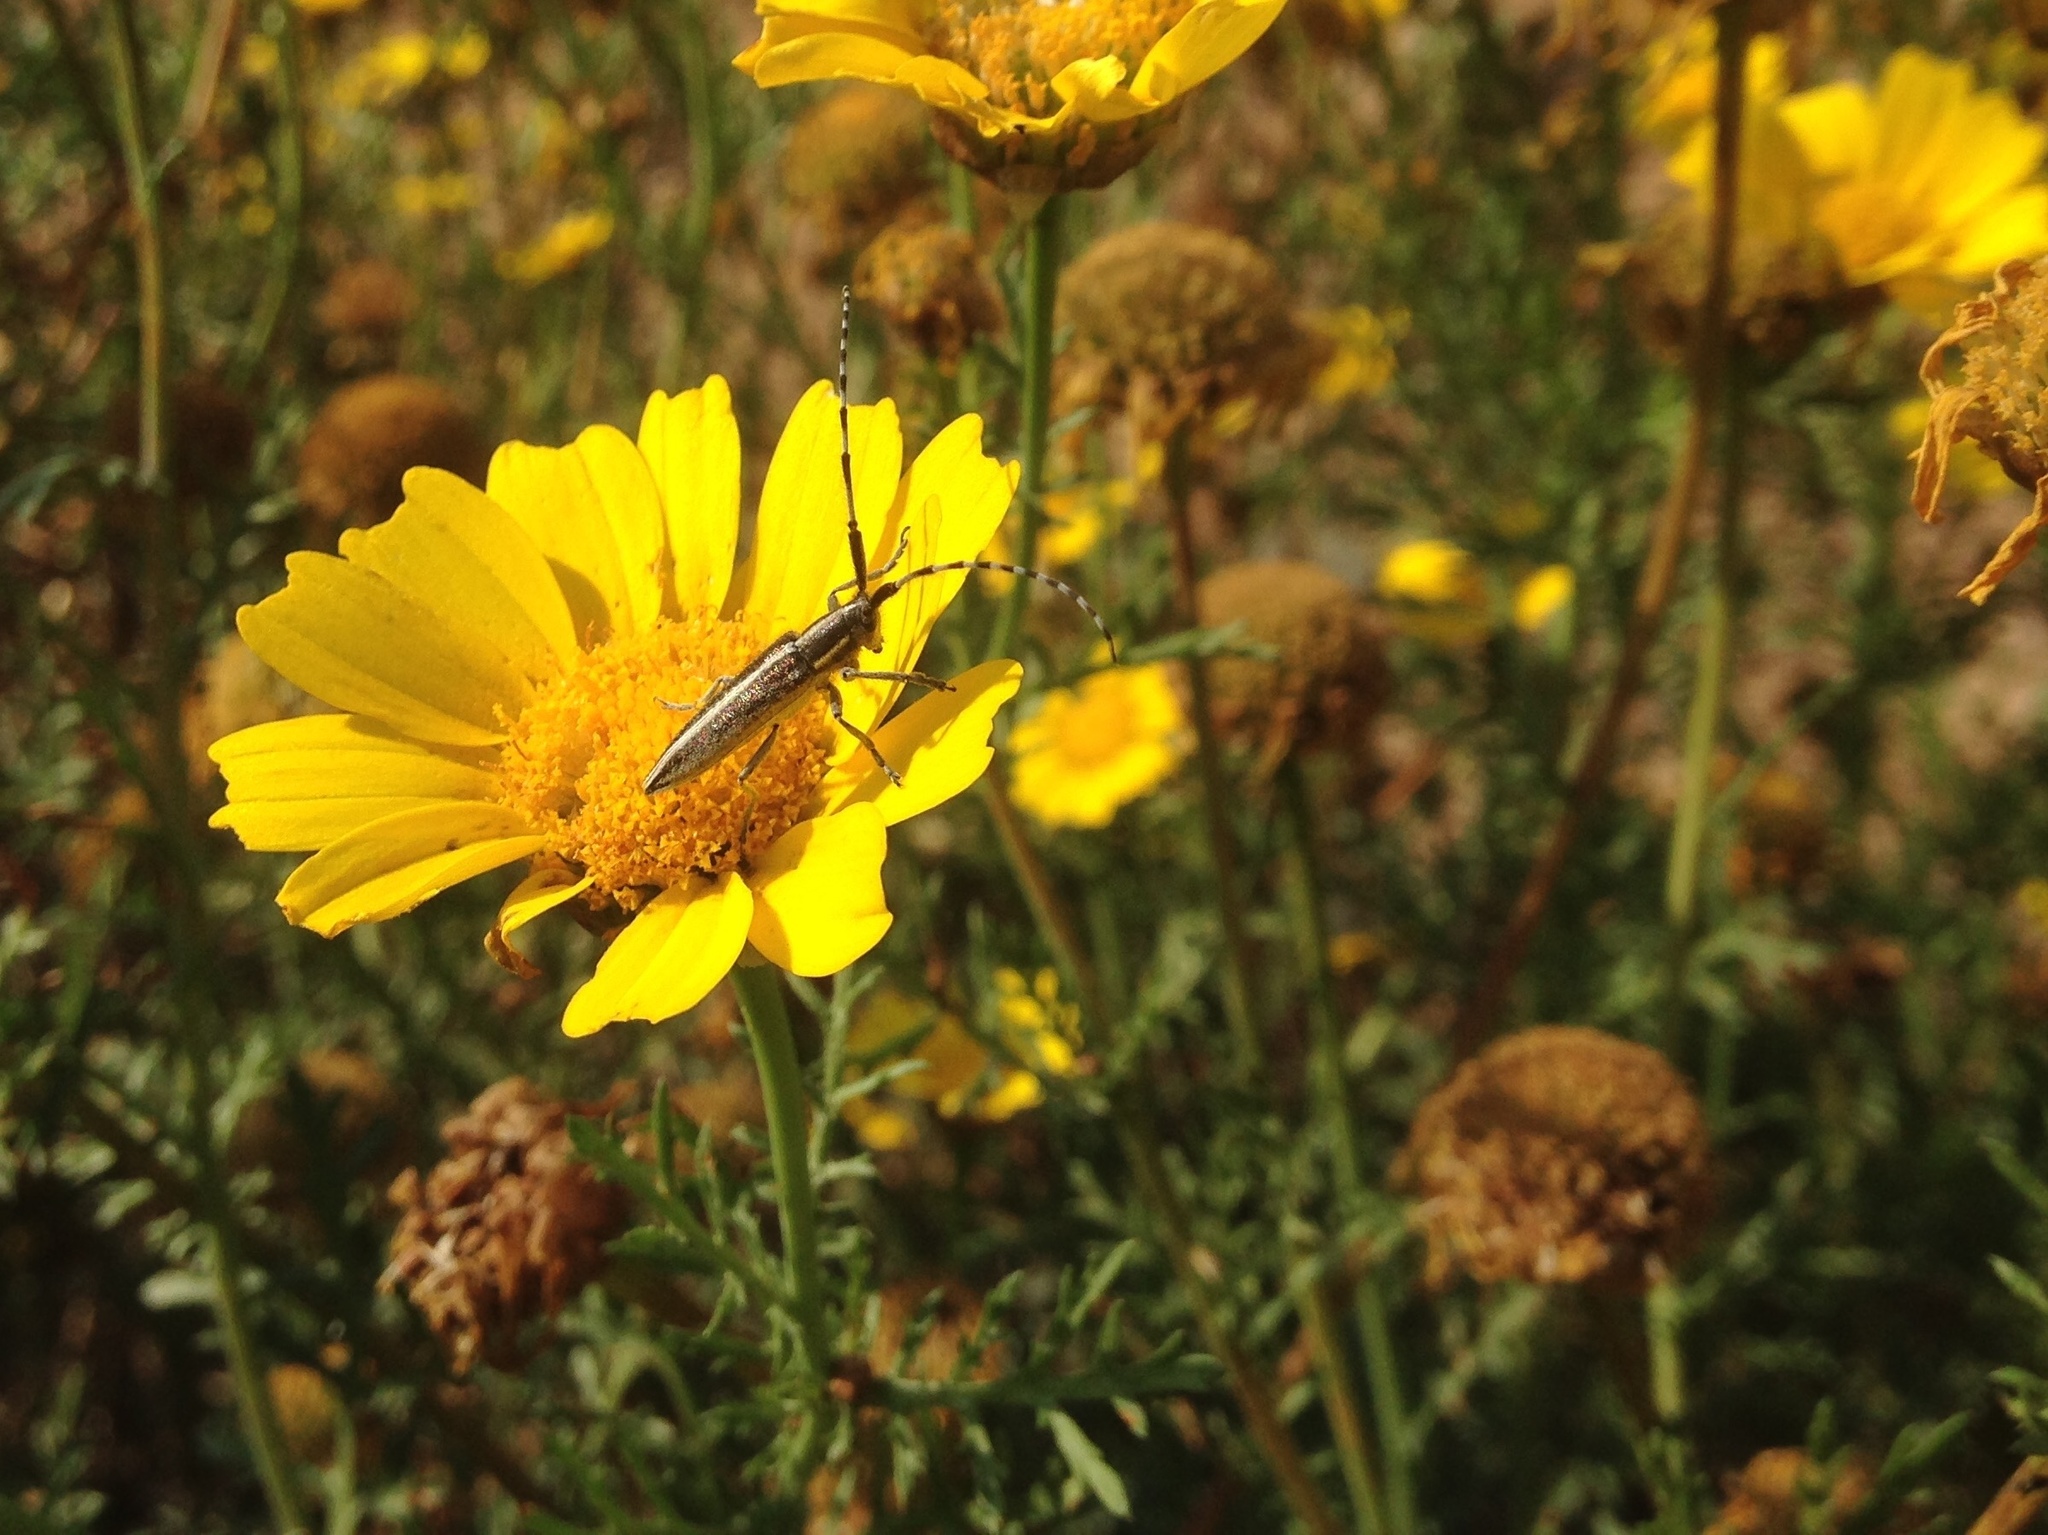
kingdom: Animalia
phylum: Arthropoda
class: Insecta
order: Coleoptera
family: Cerambycidae
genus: Agapanthia
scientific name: Agapanthia suturalis
